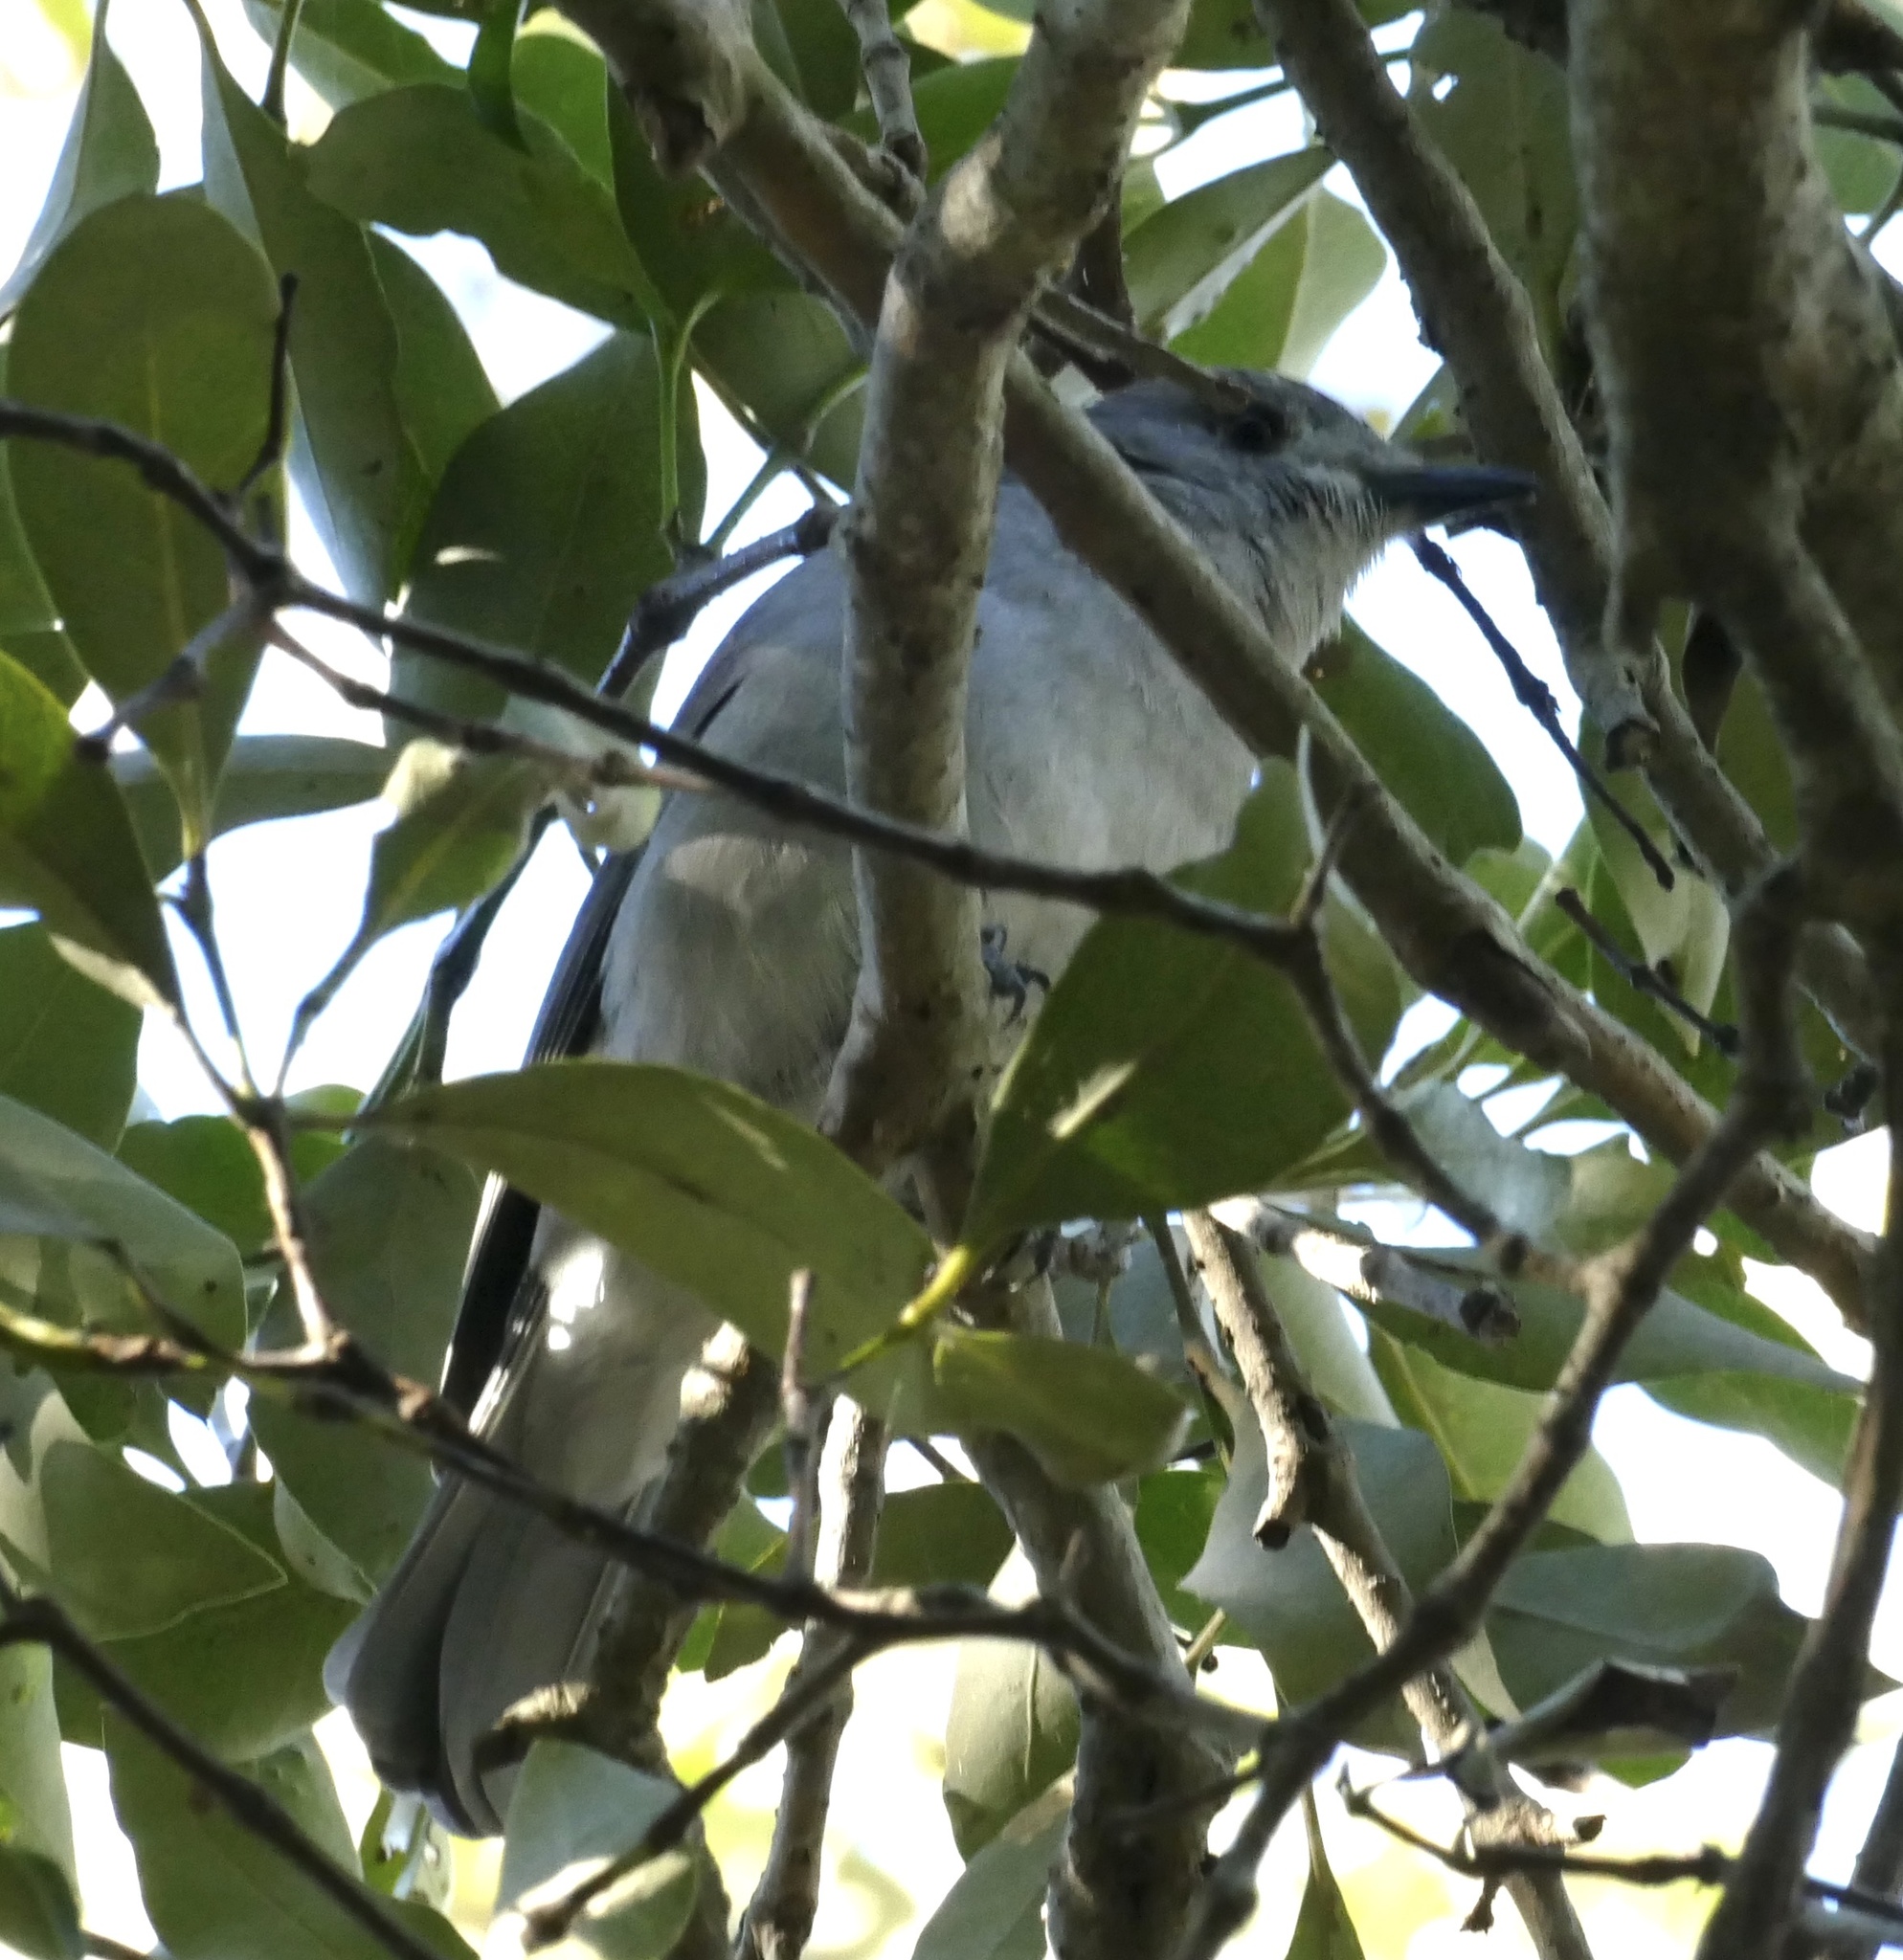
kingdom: Animalia
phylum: Chordata
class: Aves
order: Passeriformes
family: Pachycephalidae
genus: Colluricincla
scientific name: Colluricincla harmonica
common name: Grey shrikethrush
